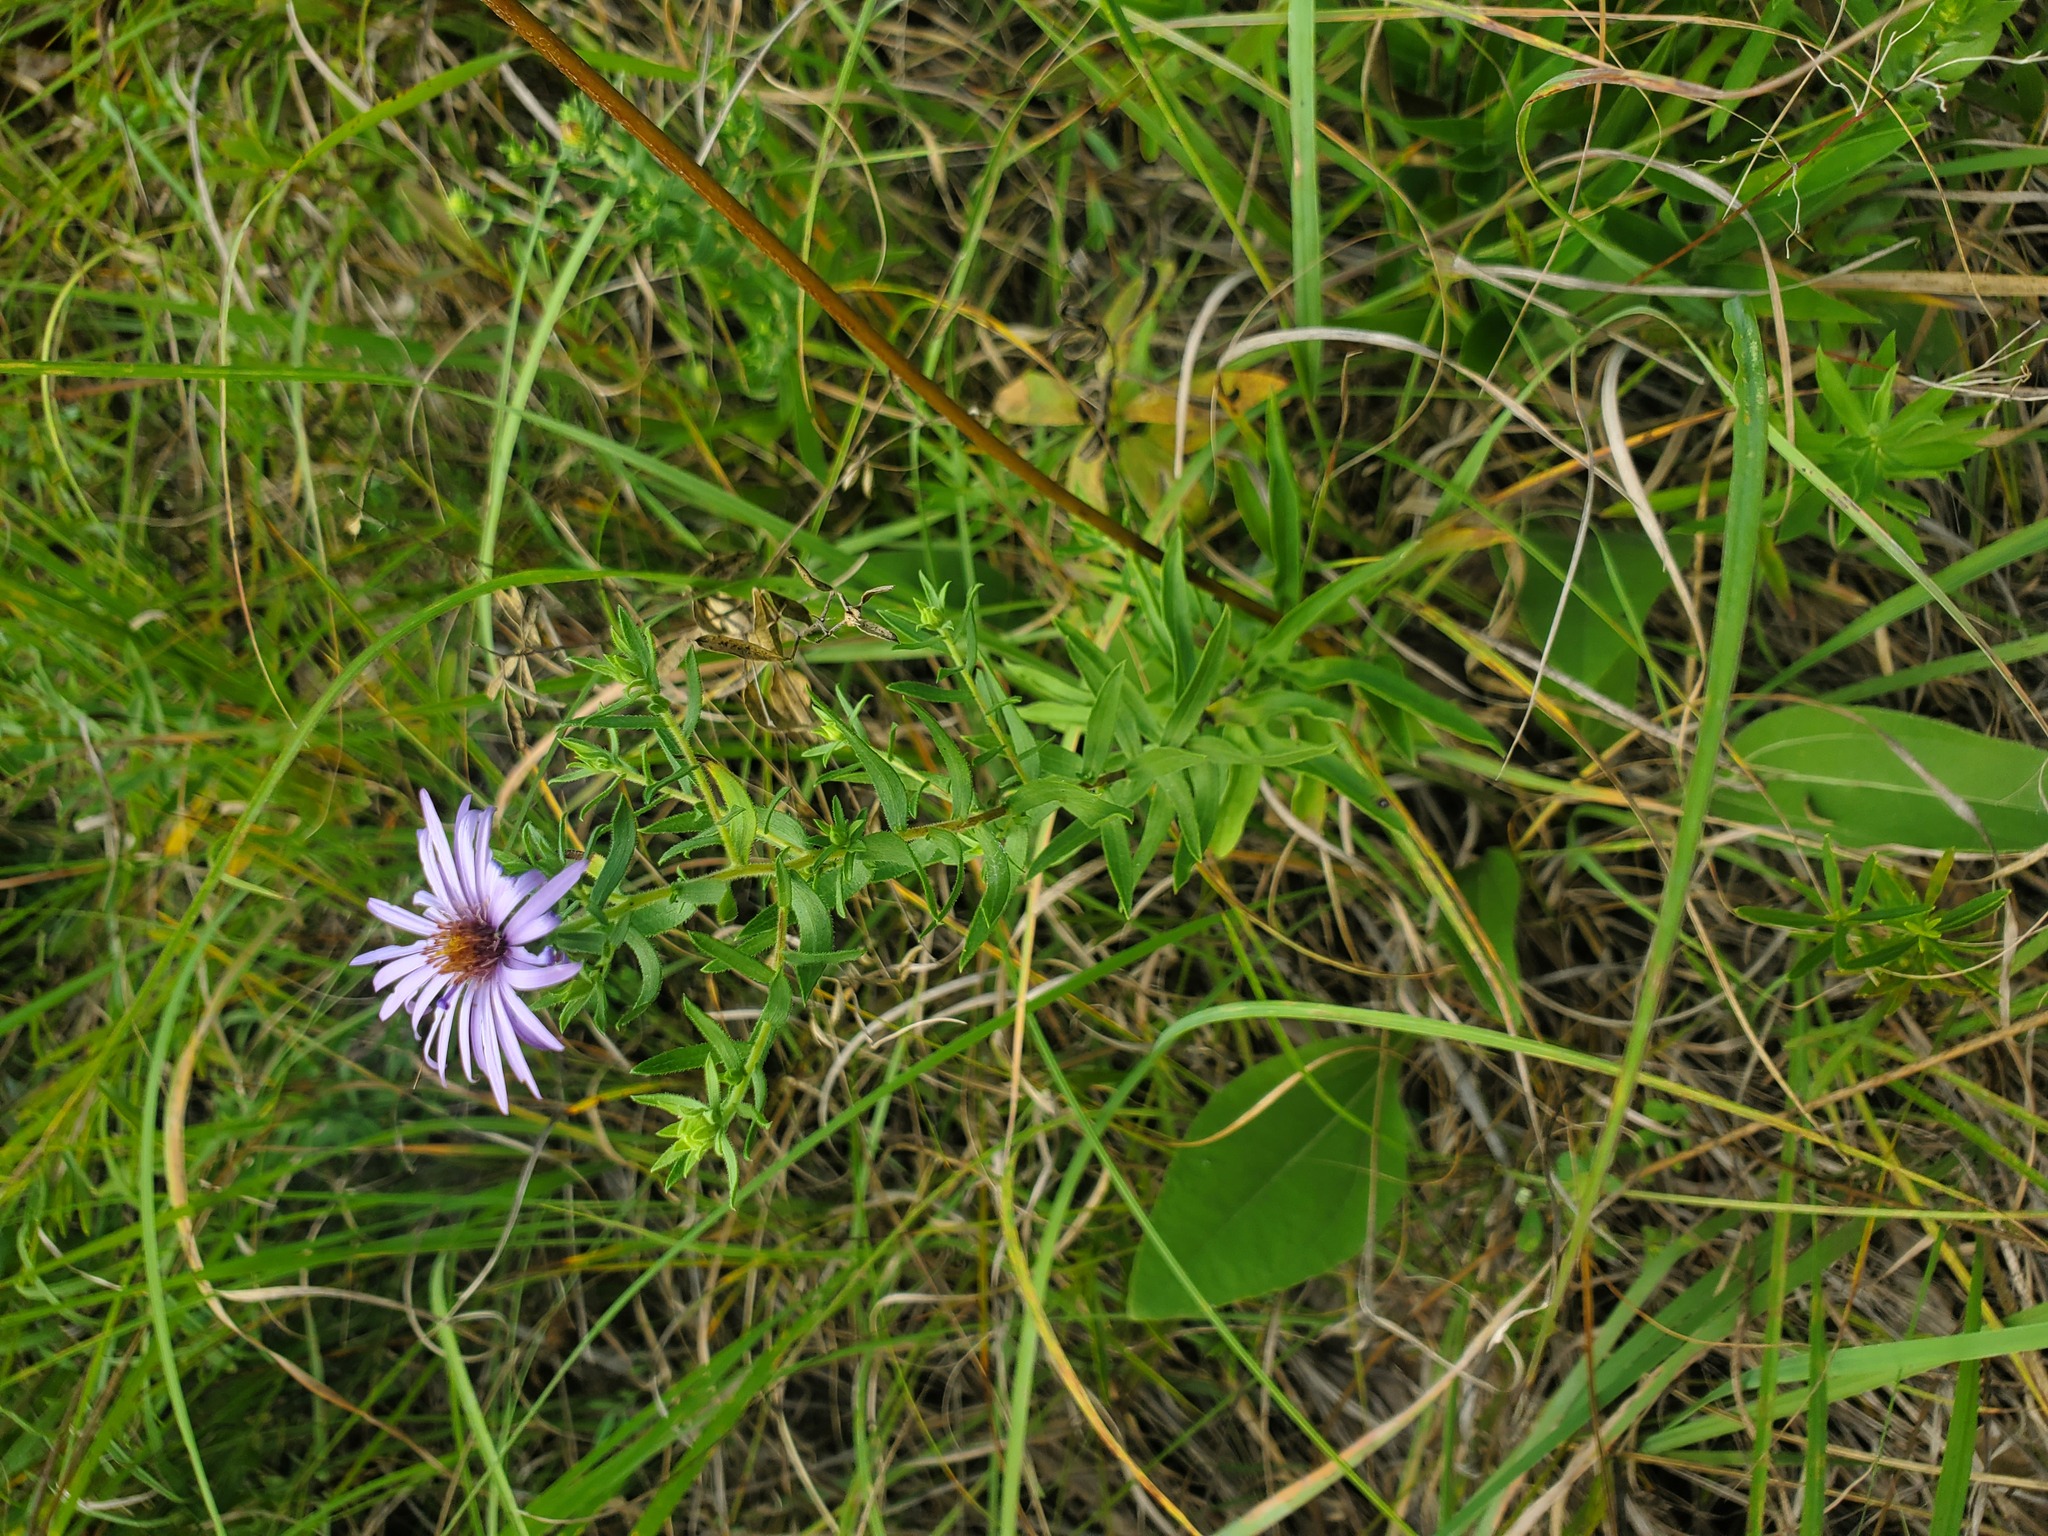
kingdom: Plantae
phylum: Tracheophyta
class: Magnoliopsida
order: Asterales
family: Asteraceae
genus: Symphyotrichum
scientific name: Symphyotrichum oblongifolium
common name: Aromatic aster
